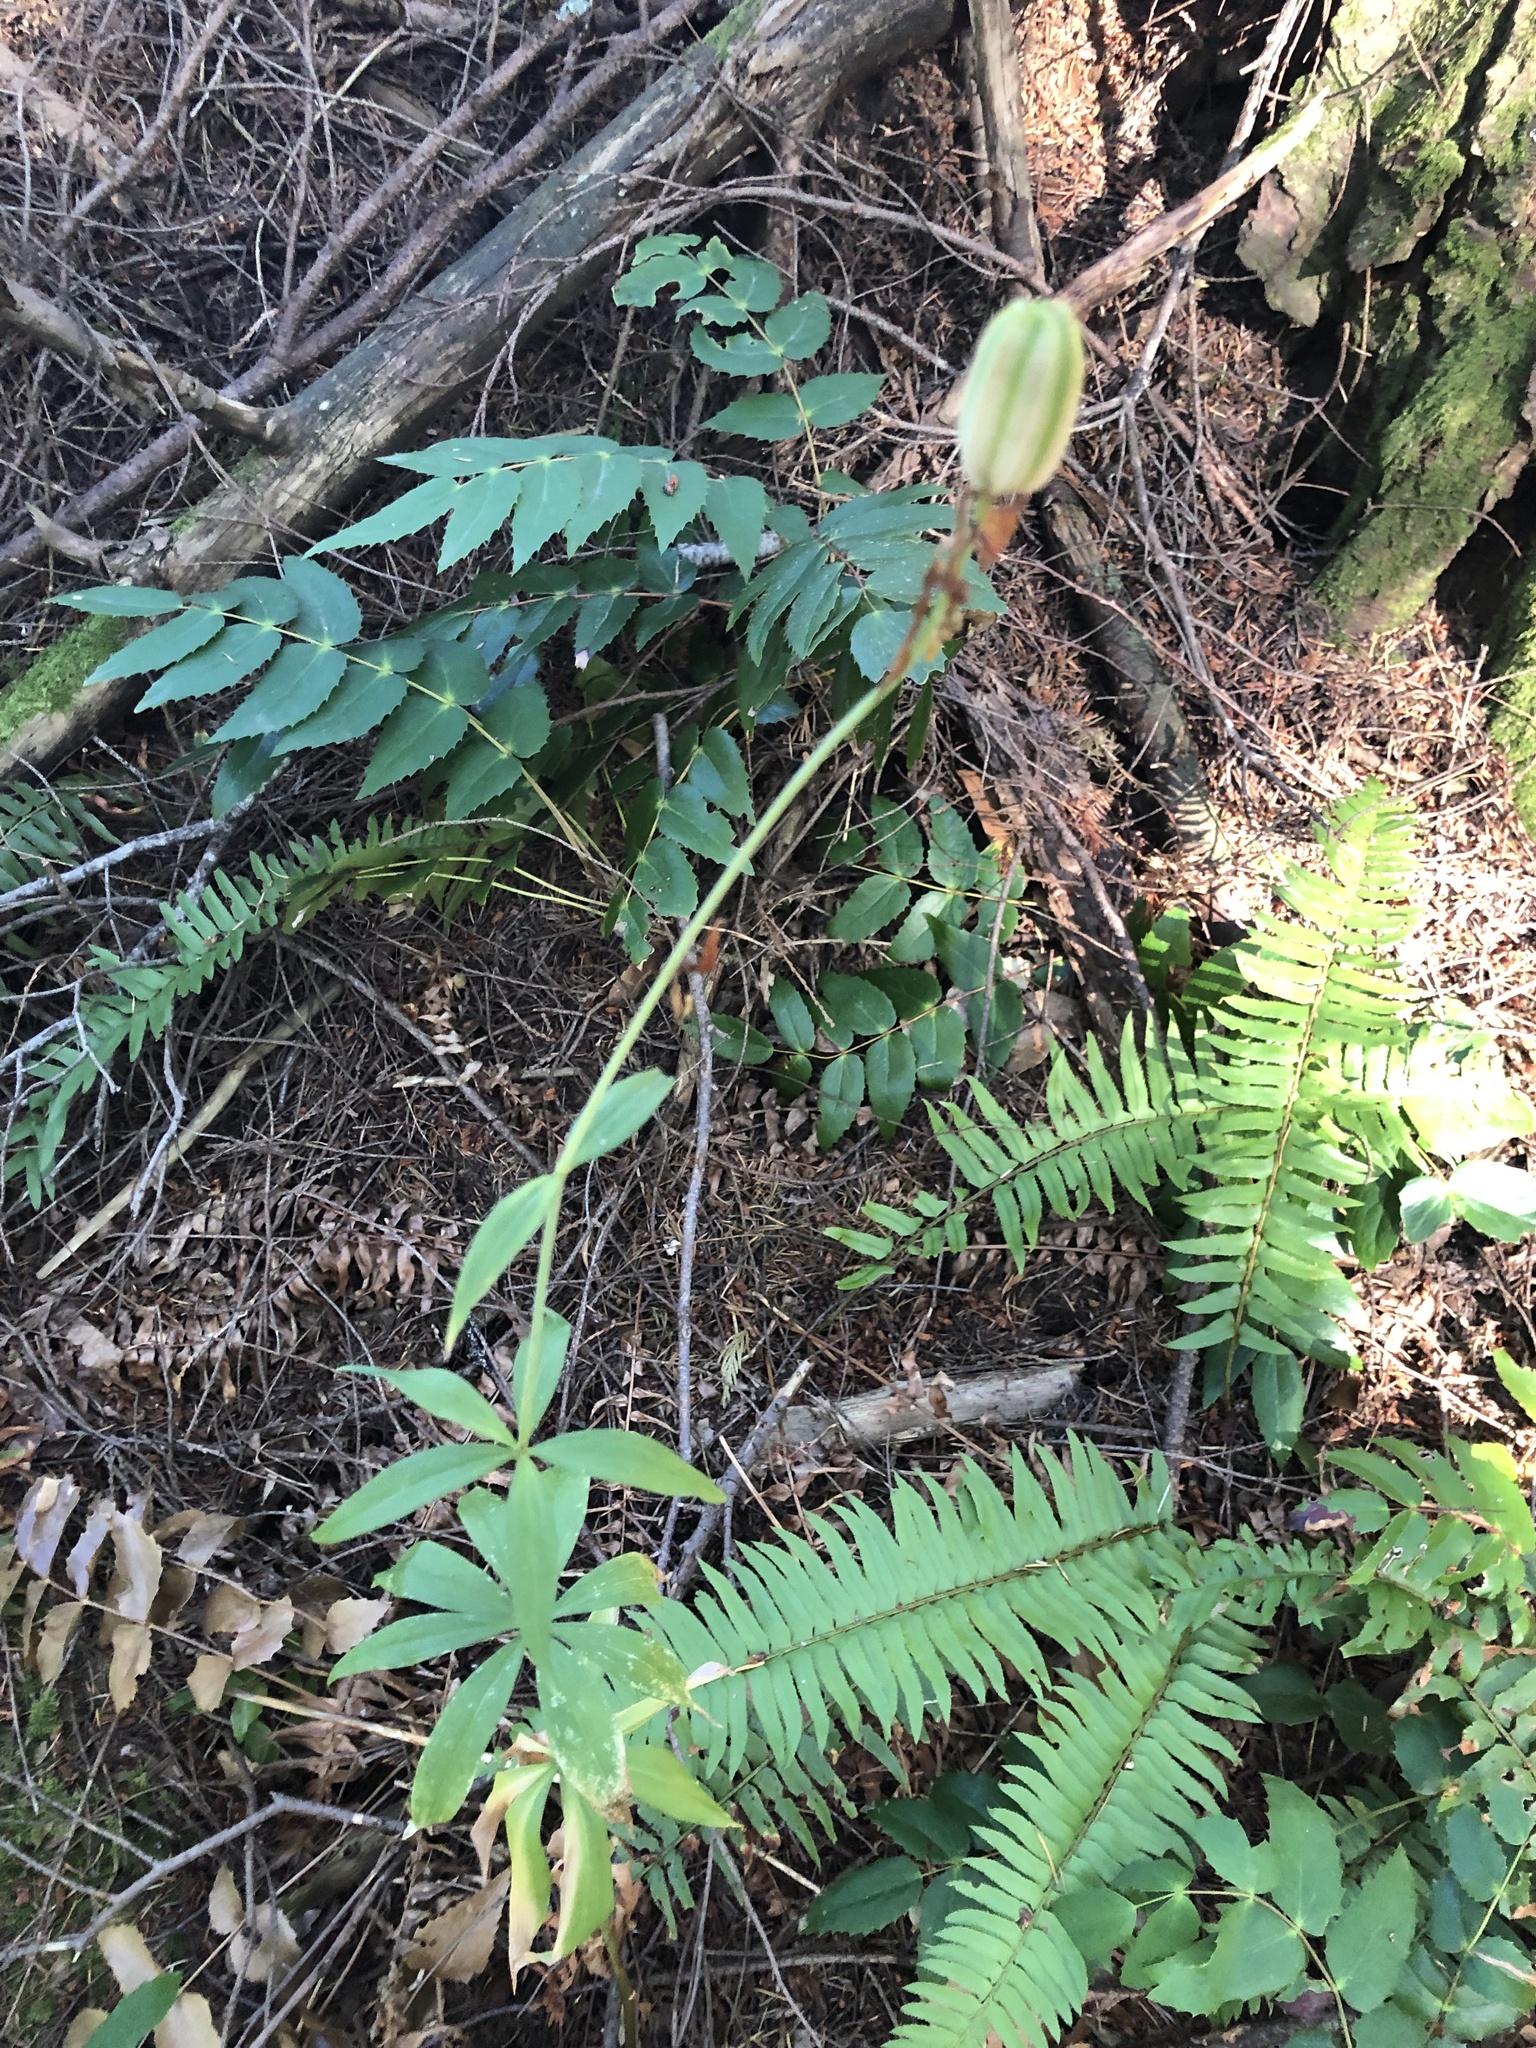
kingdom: Plantae
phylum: Tracheophyta
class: Liliopsida
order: Liliales
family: Liliaceae
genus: Lilium
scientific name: Lilium columbianum
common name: Columbia lily
